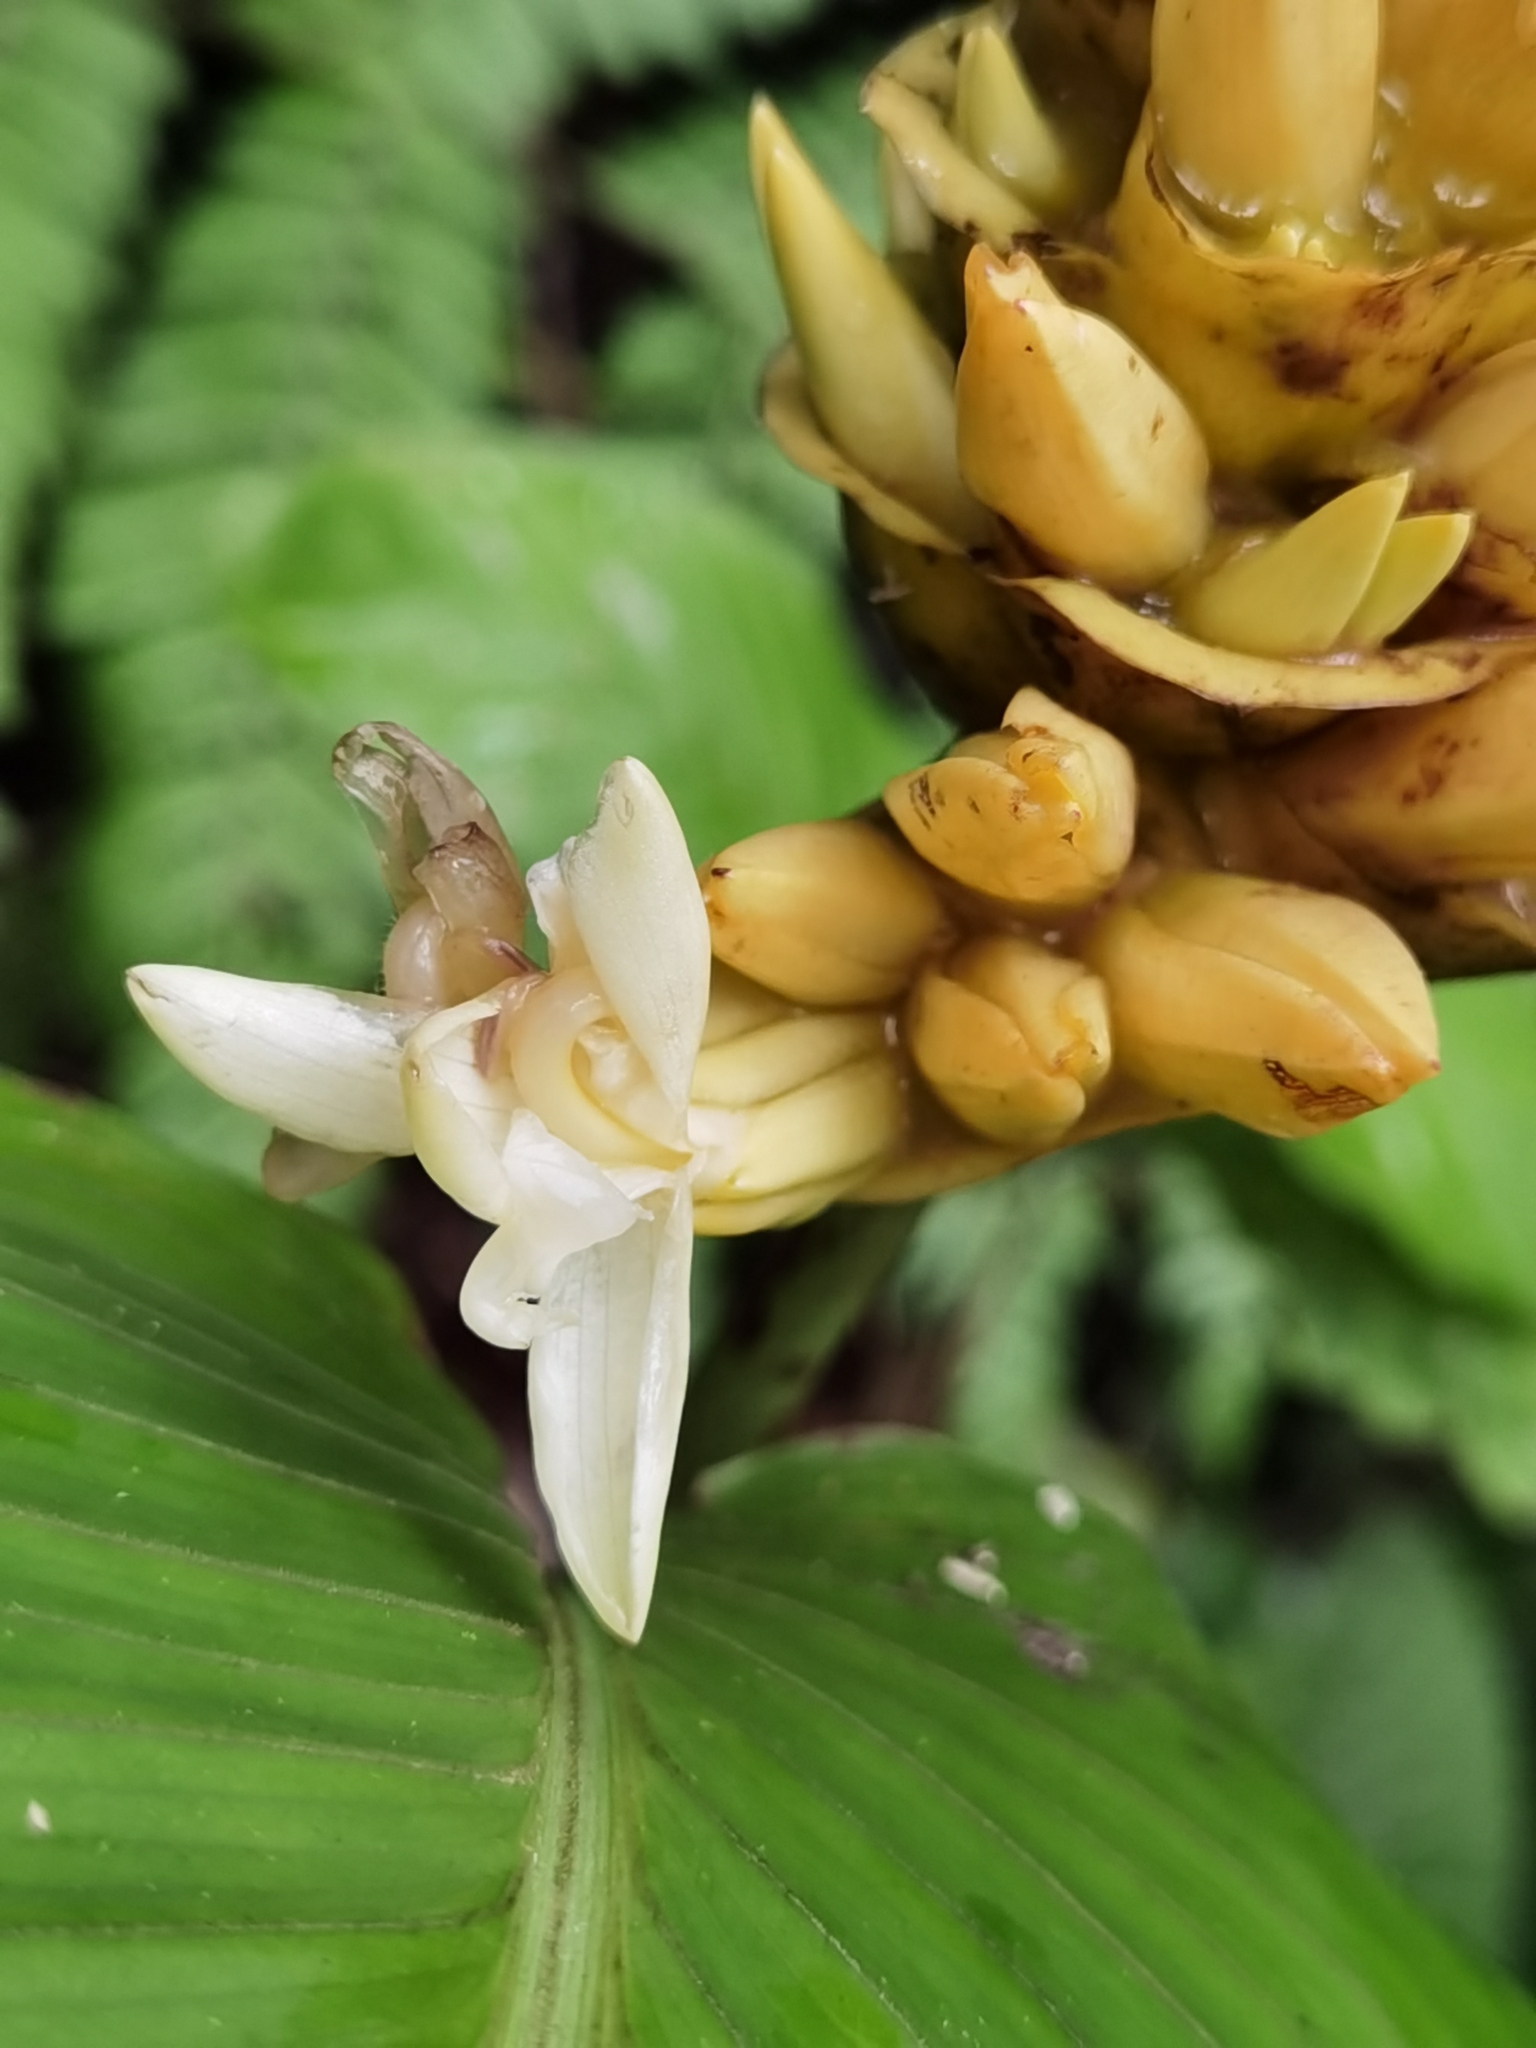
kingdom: Plantae
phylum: Tracheophyta
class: Liliopsida
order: Zingiberales
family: Marantaceae
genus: Goeppertia
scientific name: Goeppertia marantifolia
